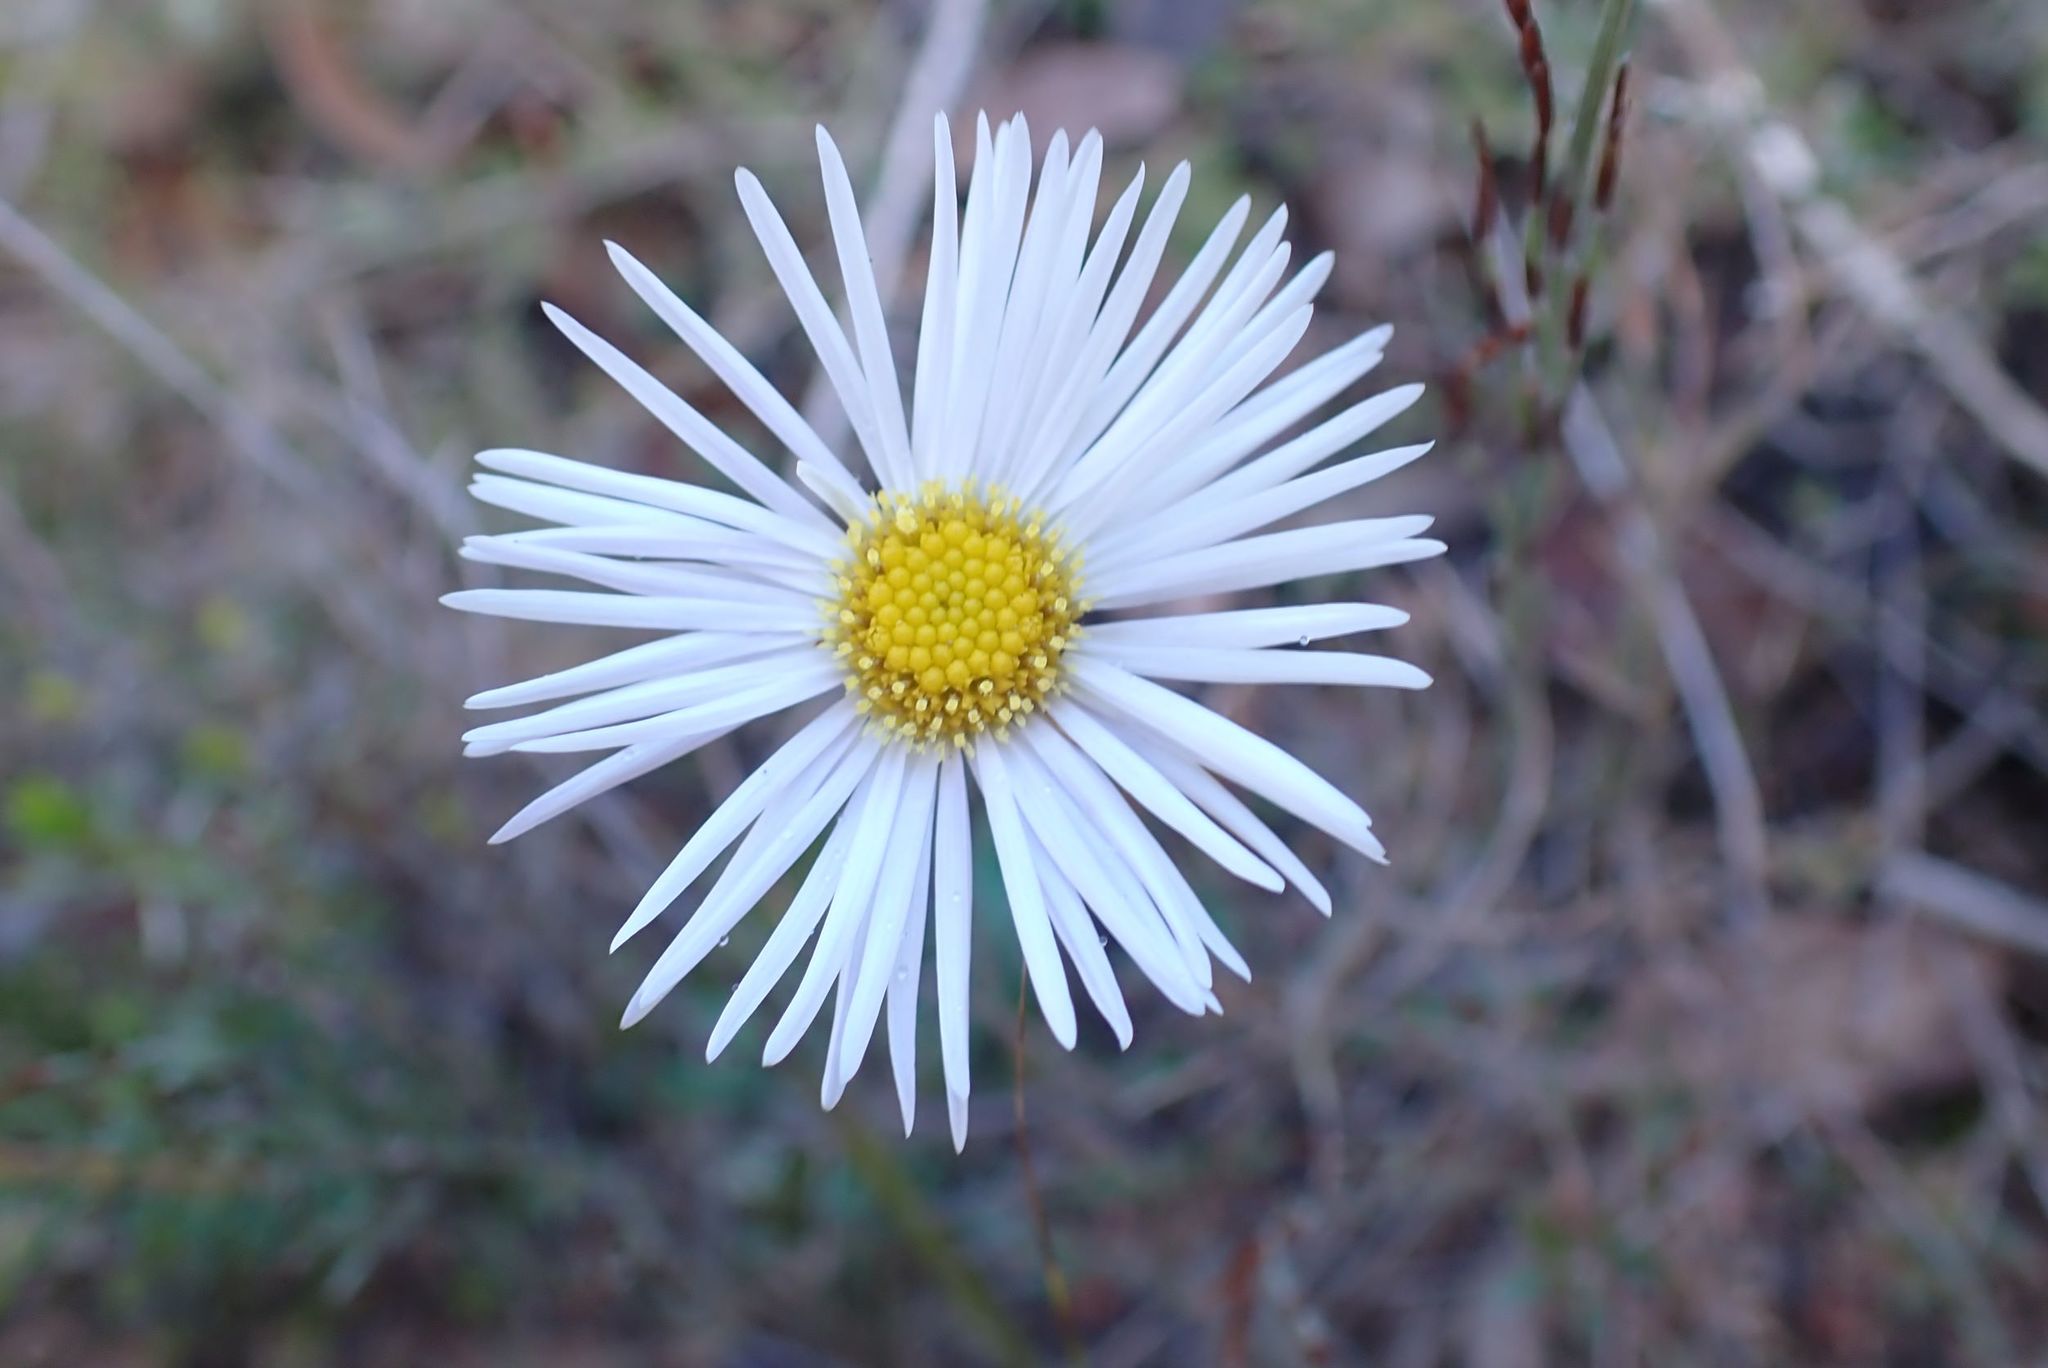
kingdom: Plantae
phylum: Tracheophyta
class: Magnoliopsida
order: Asterales
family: Asteraceae
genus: Allittia
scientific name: Allittia uliginosa
